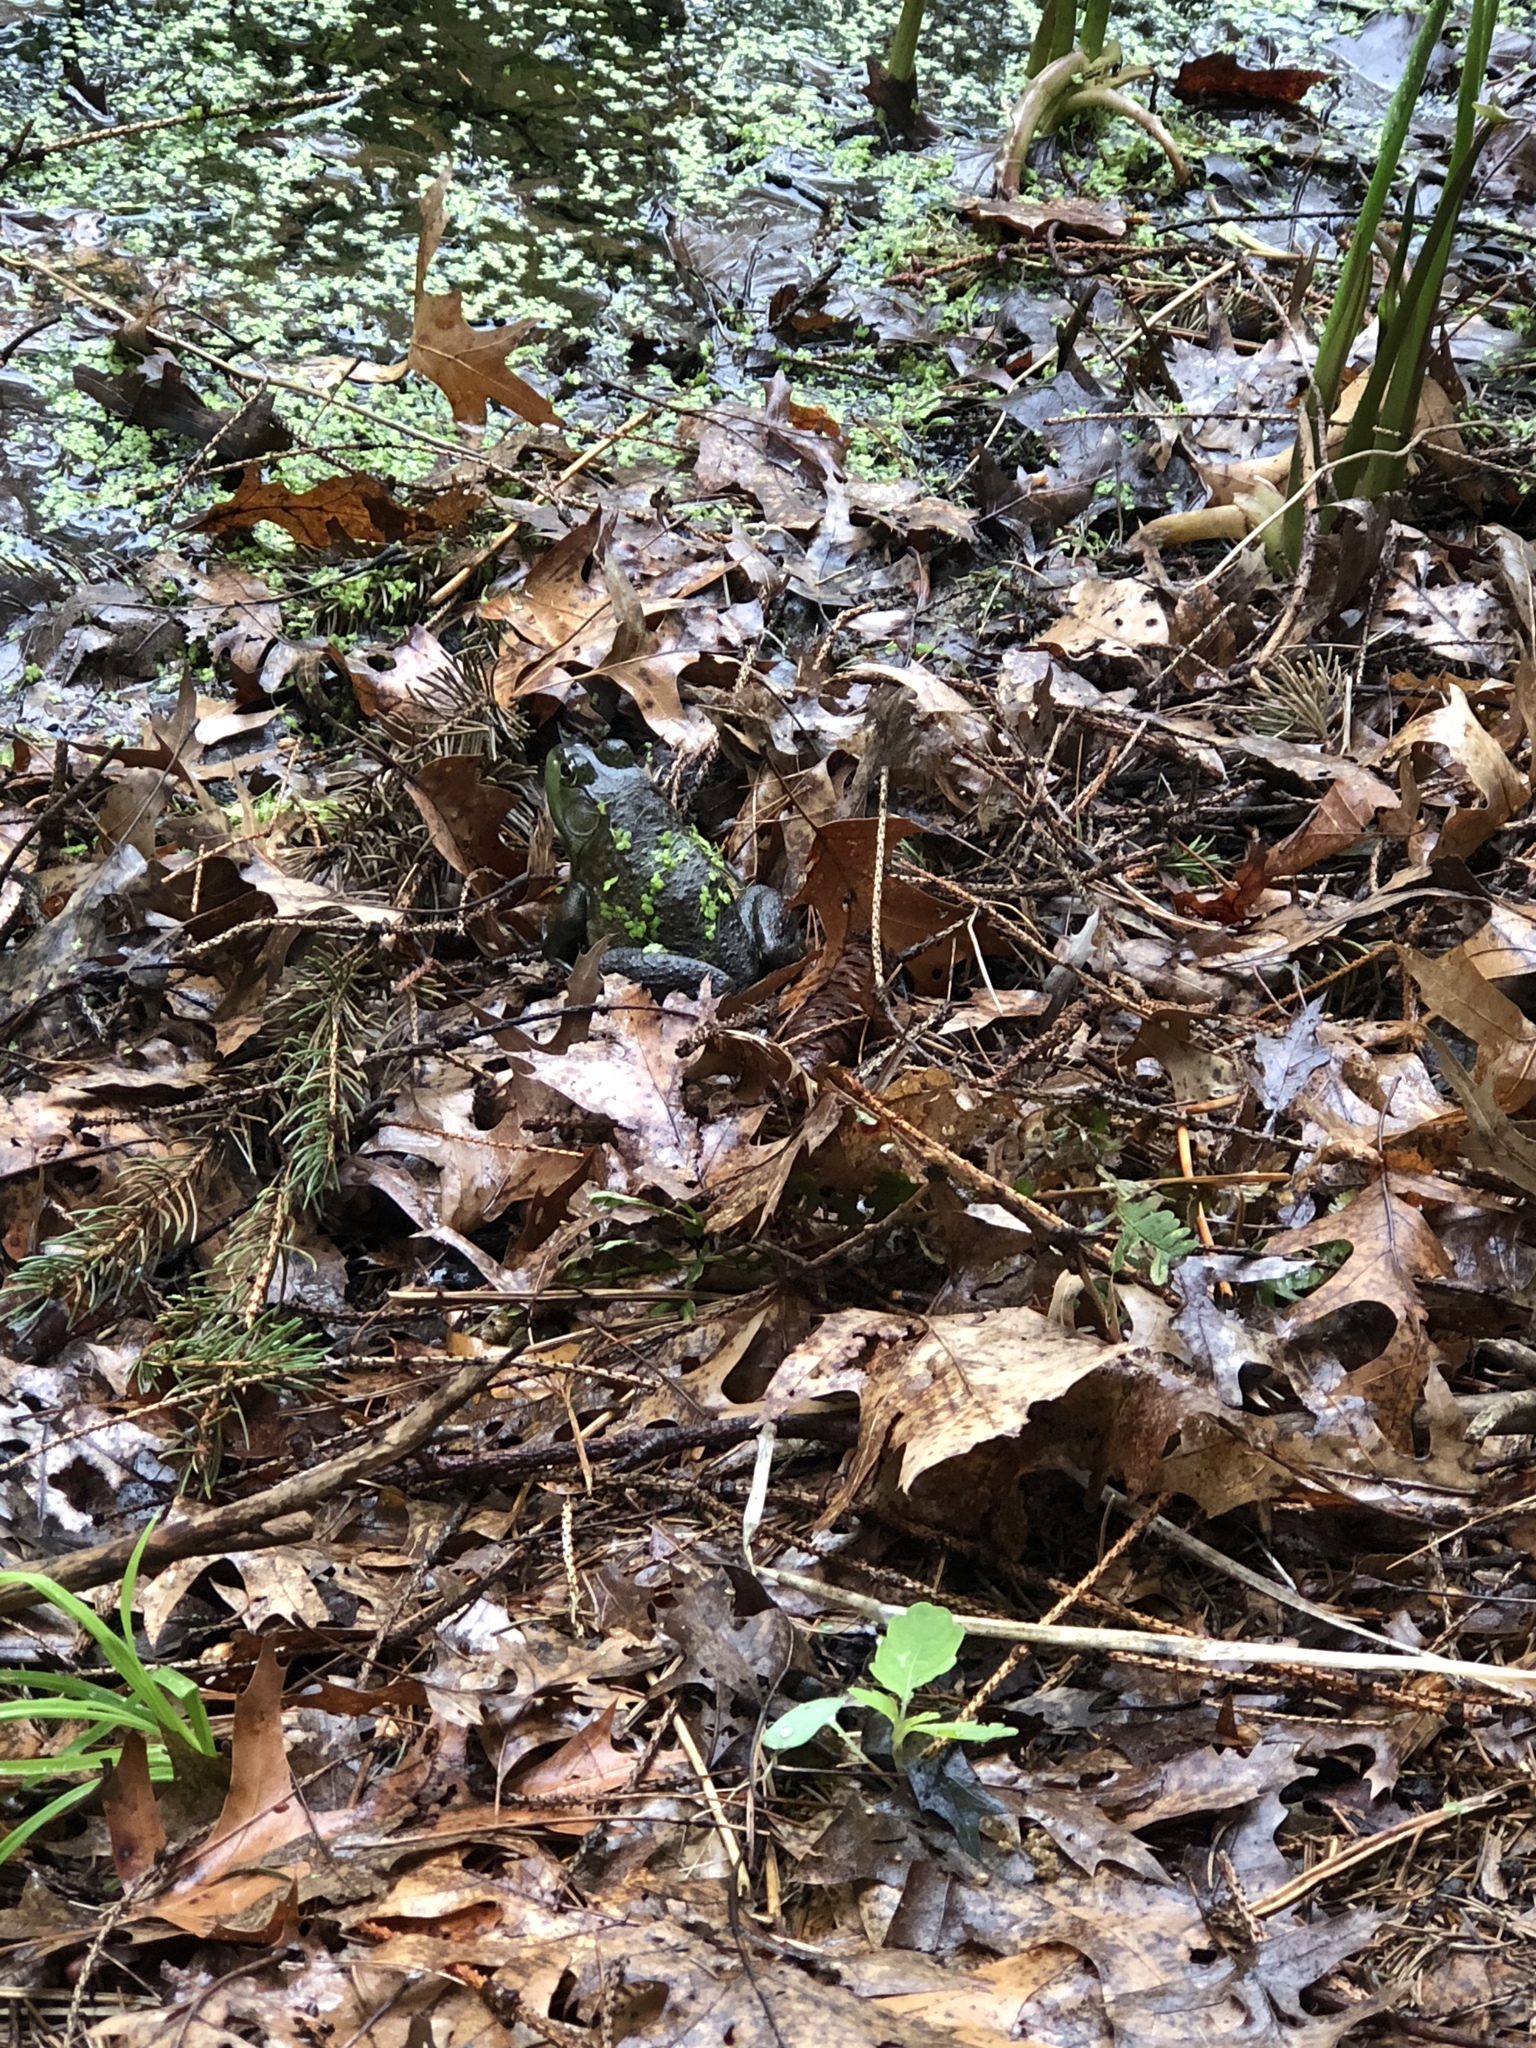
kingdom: Animalia
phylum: Chordata
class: Amphibia
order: Anura
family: Ranidae
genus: Lithobates
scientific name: Lithobates catesbeianus
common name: American bullfrog
